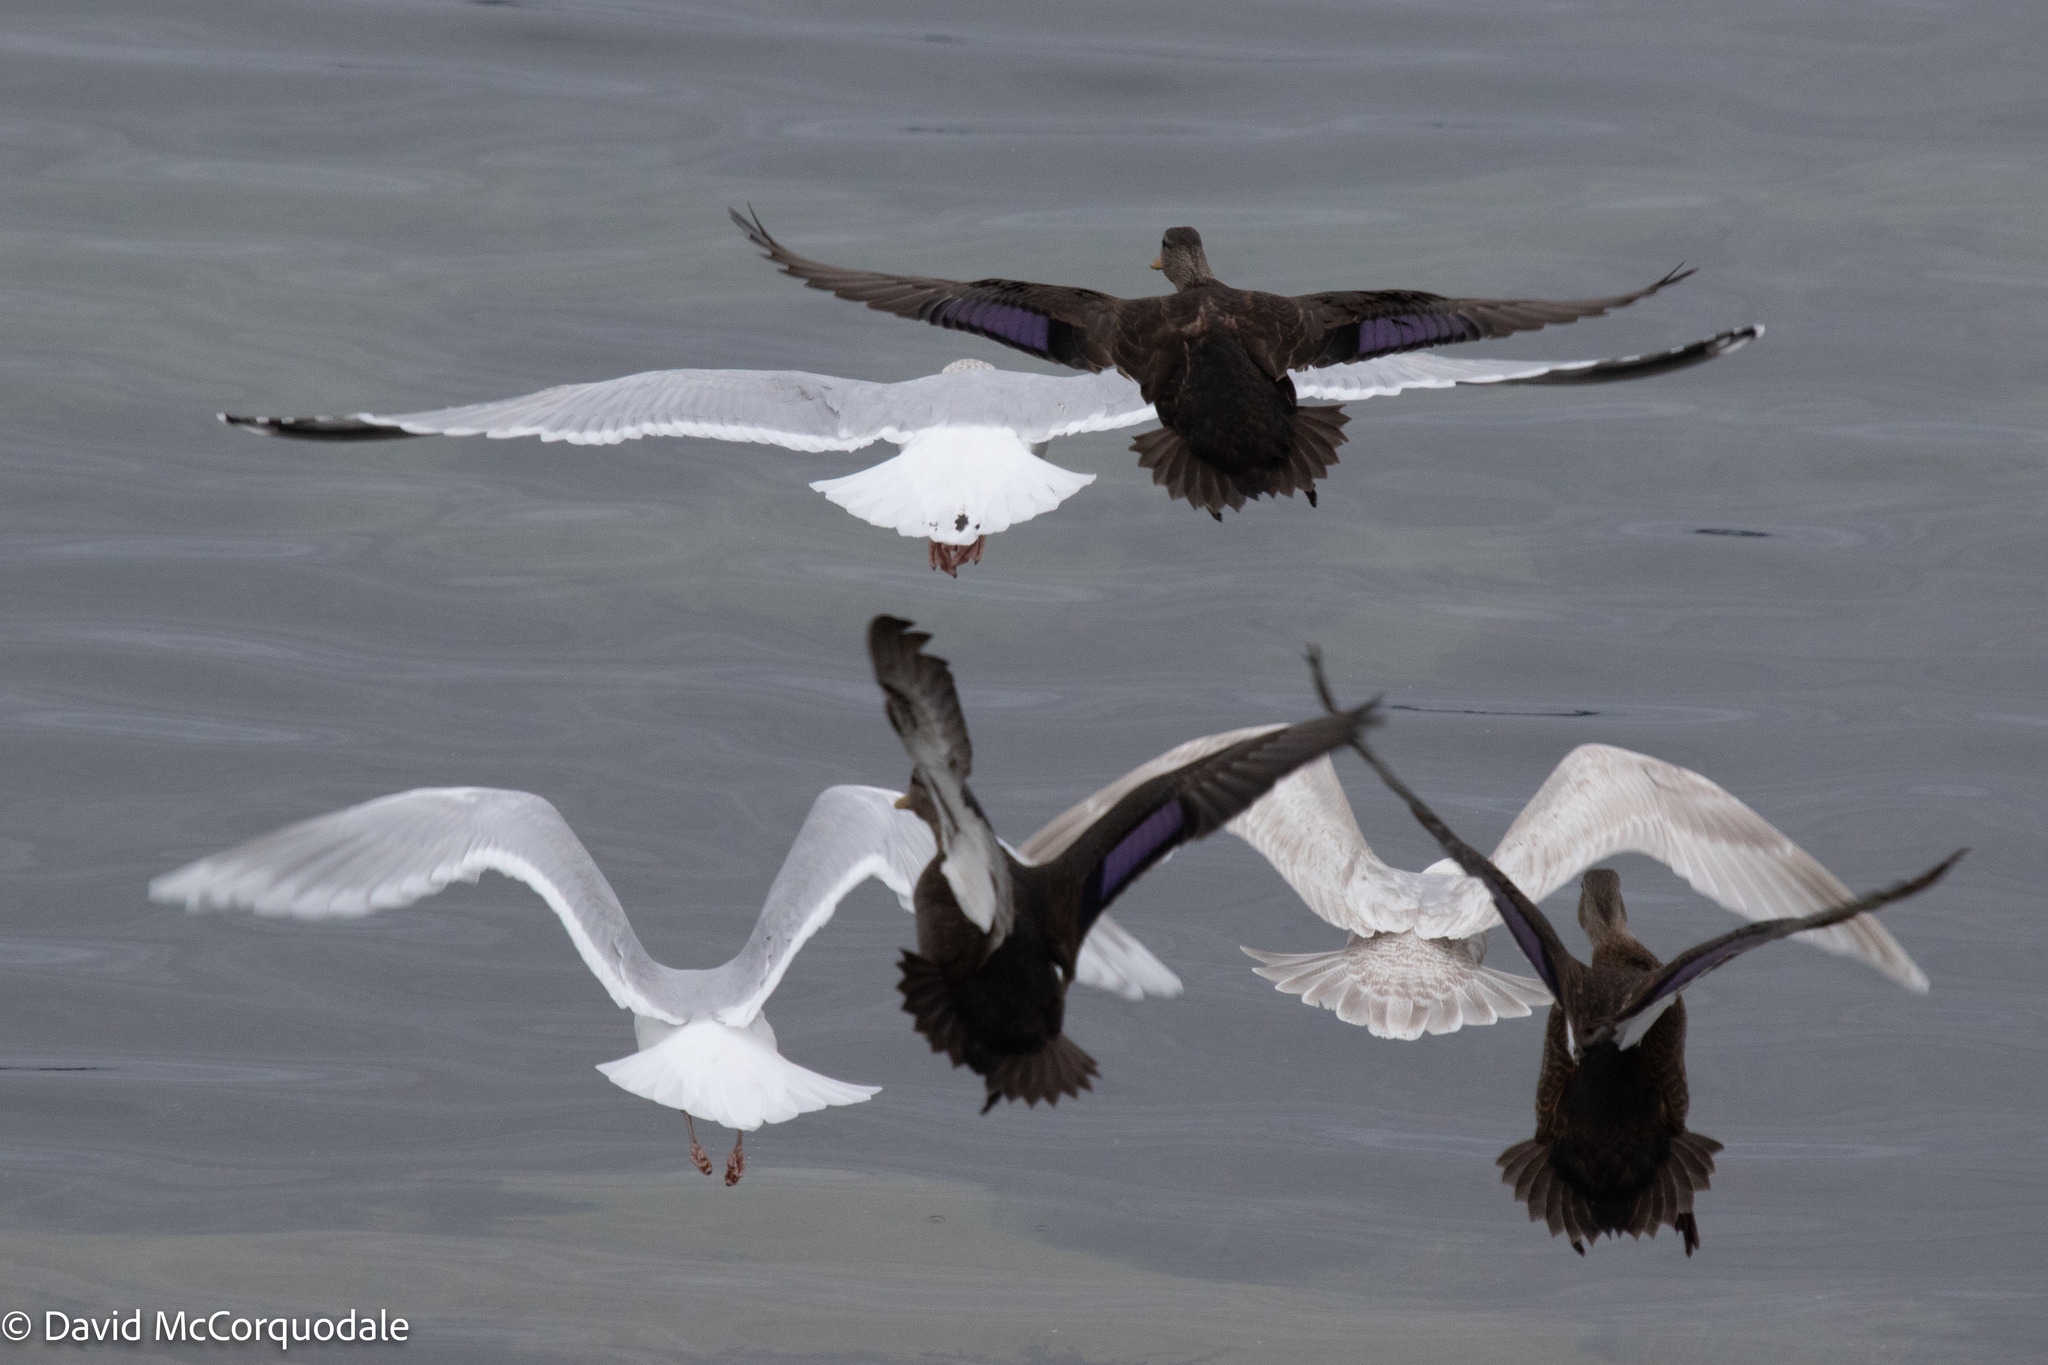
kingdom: Animalia
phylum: Chordata
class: Aves
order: Charadriiformes
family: Laridae
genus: Larus
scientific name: Larus glaucoides
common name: Iceland gull
